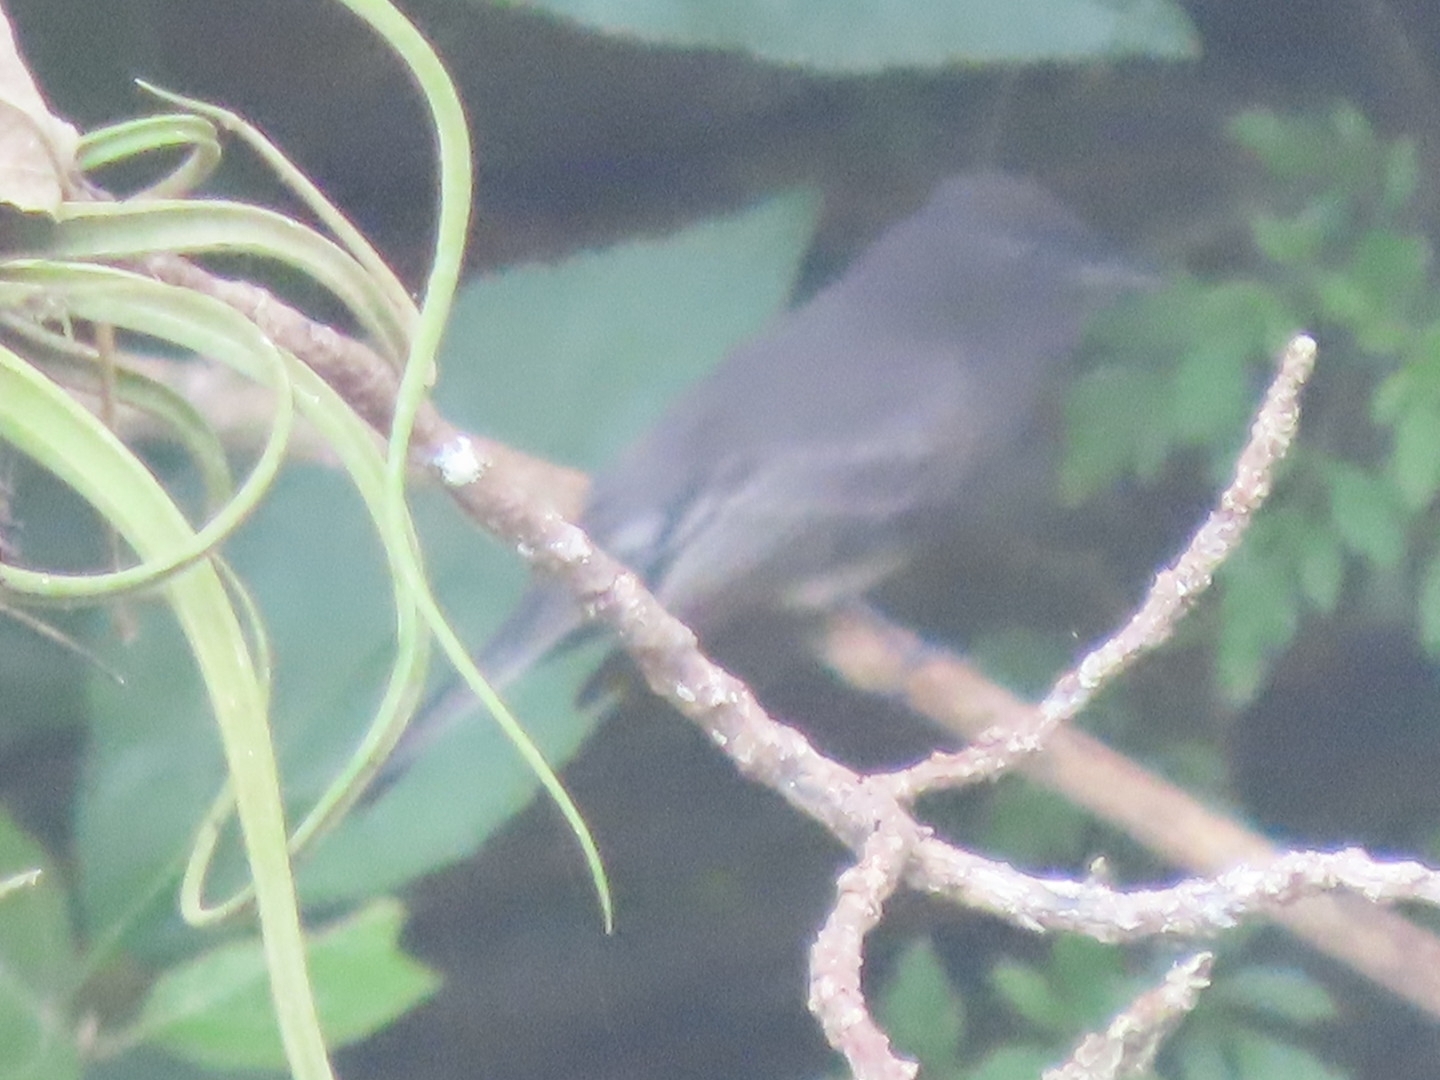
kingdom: Animalia
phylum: Chordata
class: Aves
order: Passeriformes
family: Tyrannidae
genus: Sayornis
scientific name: Sayornis nigricans
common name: Black phoebe
